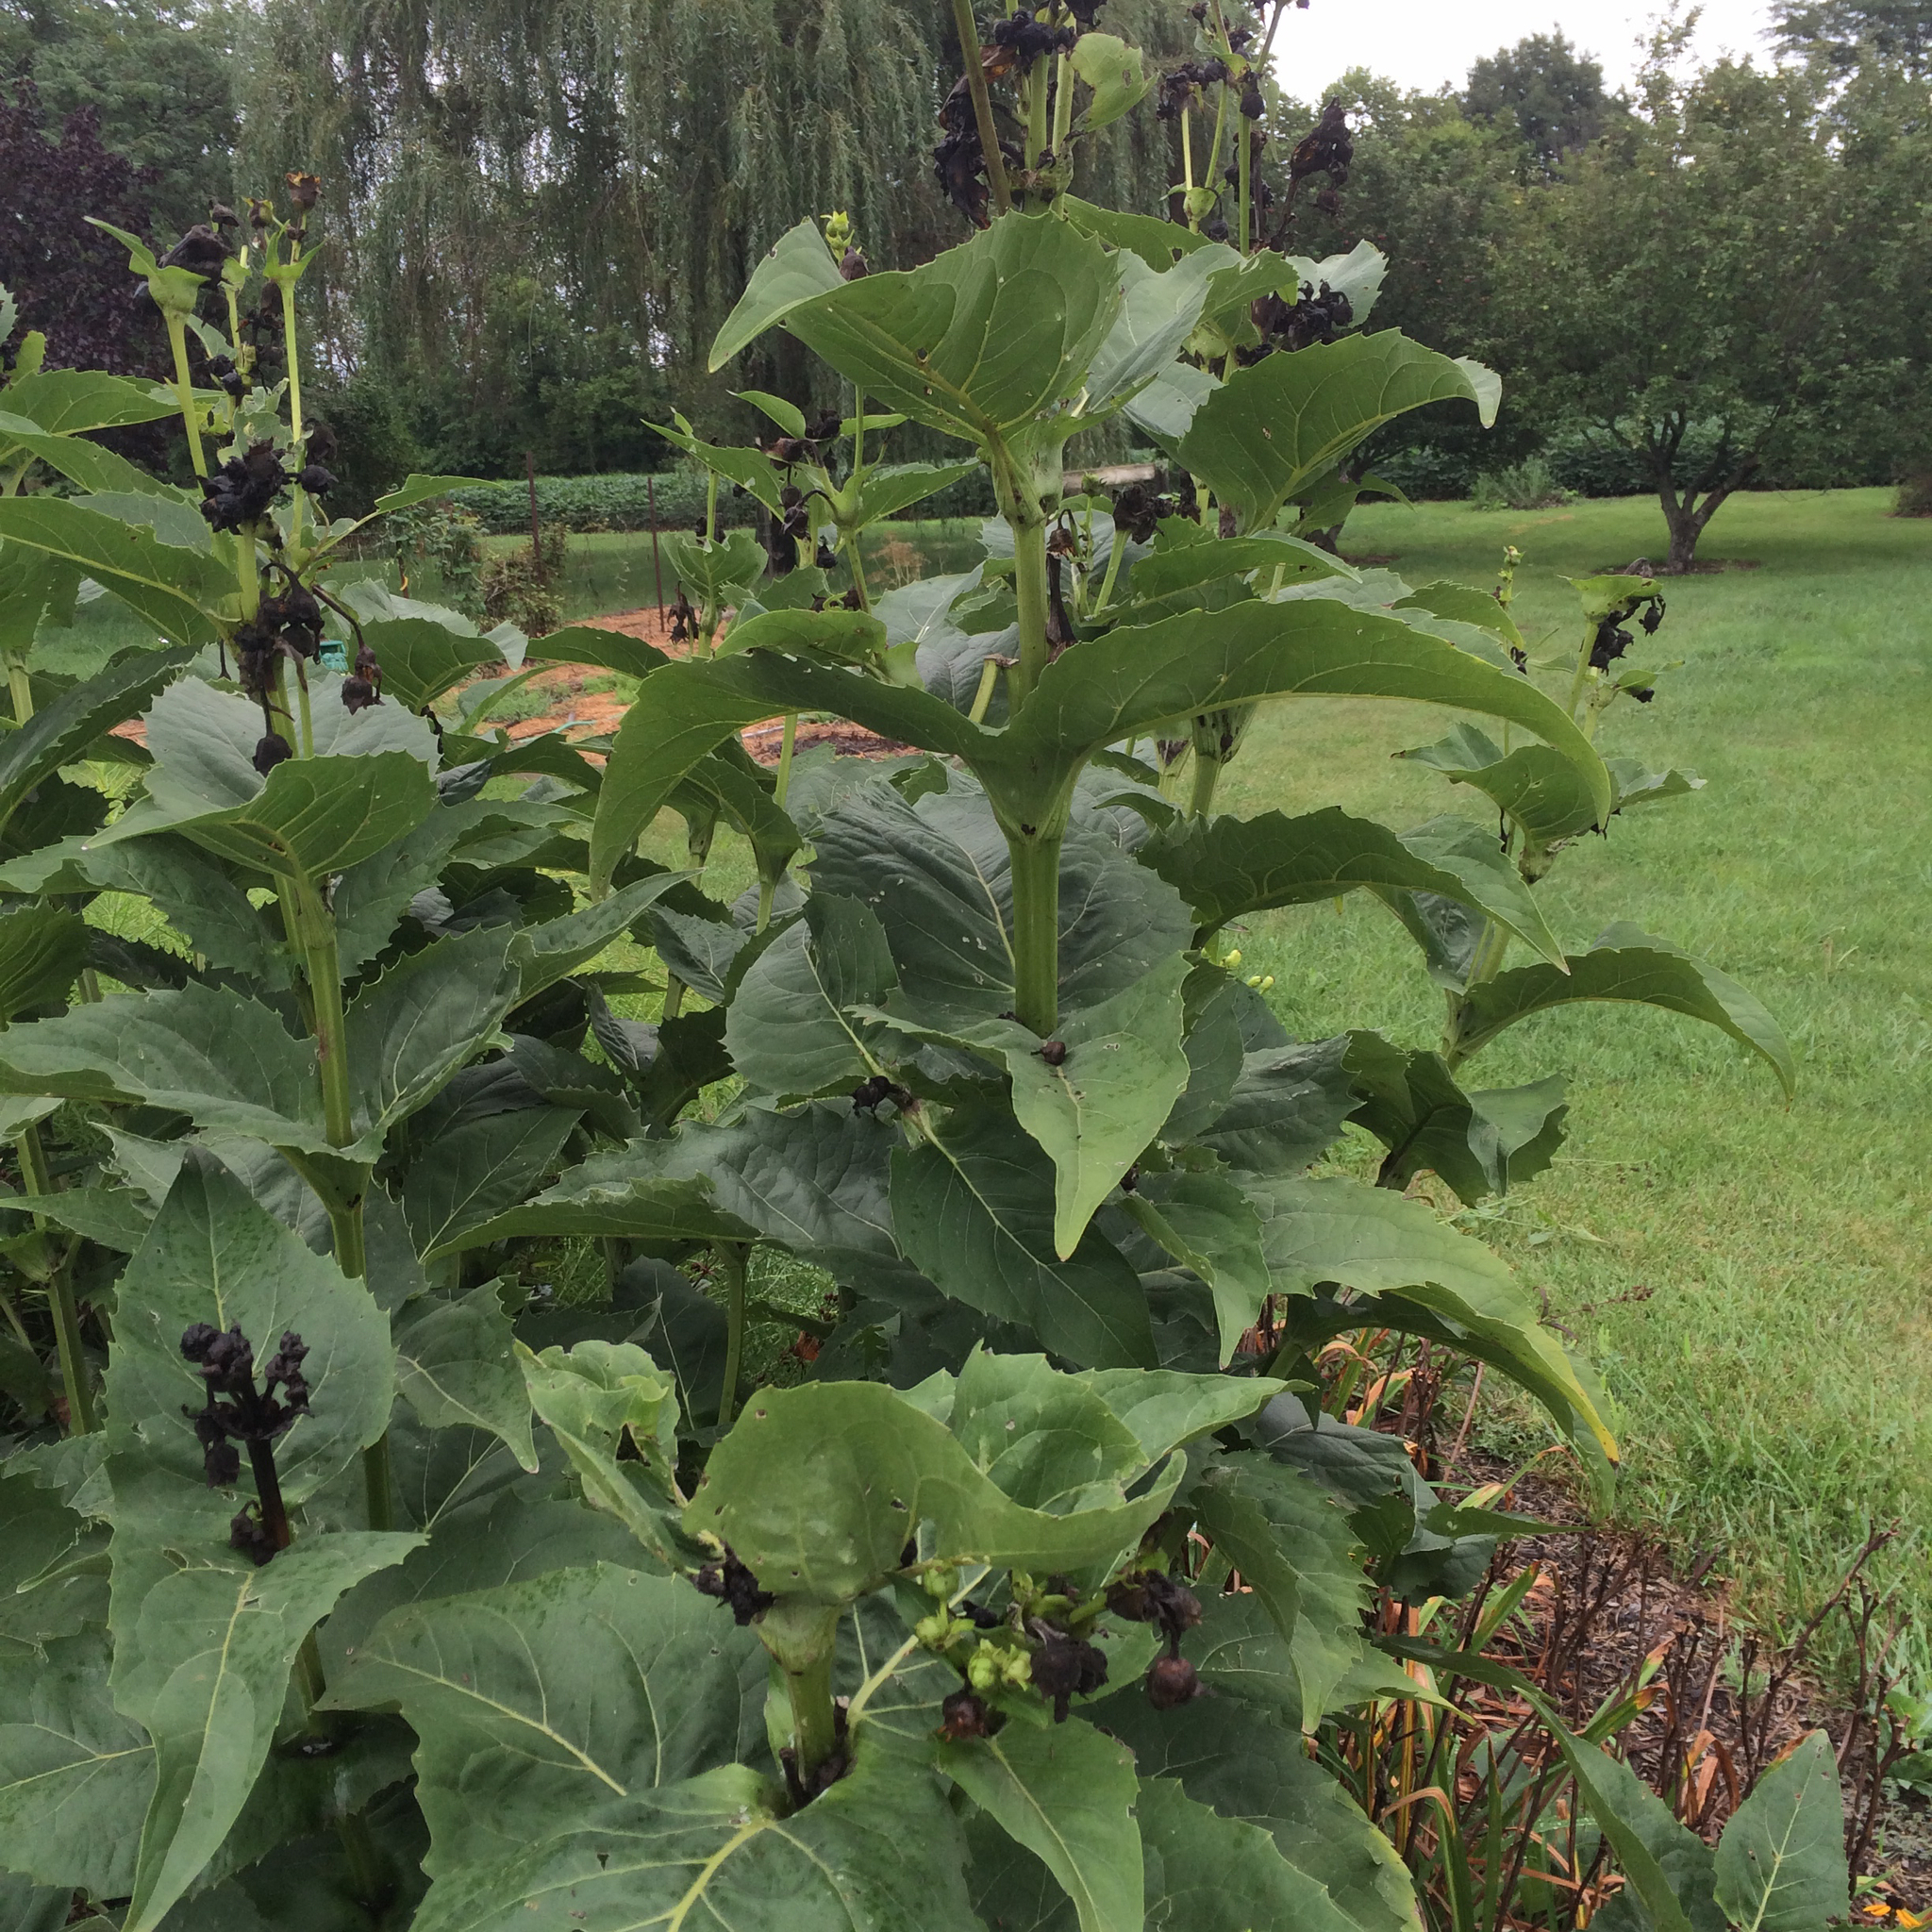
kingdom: Plantae
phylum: Tracheophyta
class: Magnoliopsida
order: Asterales
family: Asteraceae
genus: Silphium
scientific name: Silphium perfoliatum
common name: Cup-plant
